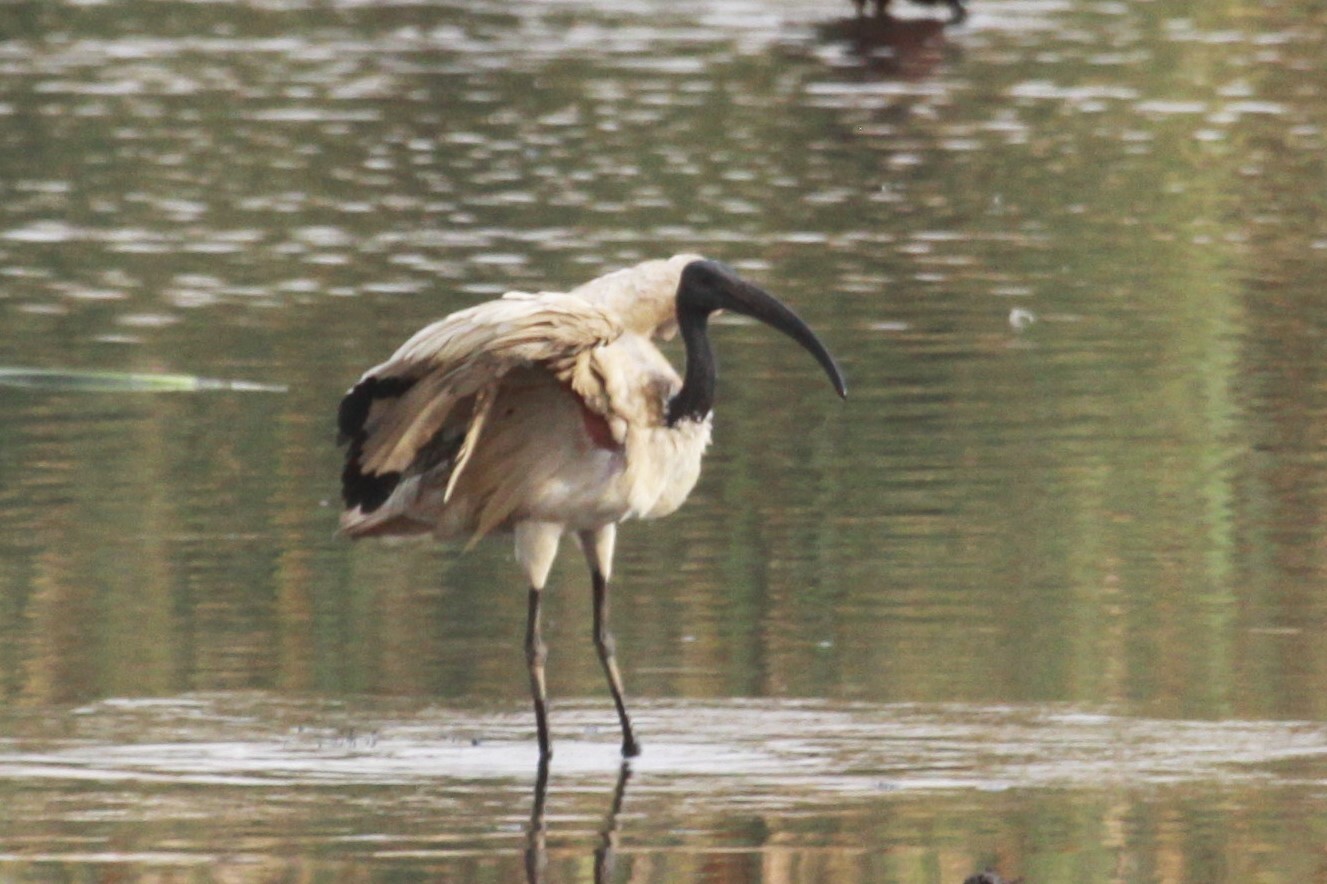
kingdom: Animalia
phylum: Chordata
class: Aves
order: Pelecaniformes
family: Threskiornithidae
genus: Threskiornis
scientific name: Threskiornis aethiopicus
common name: Sacred ibis
